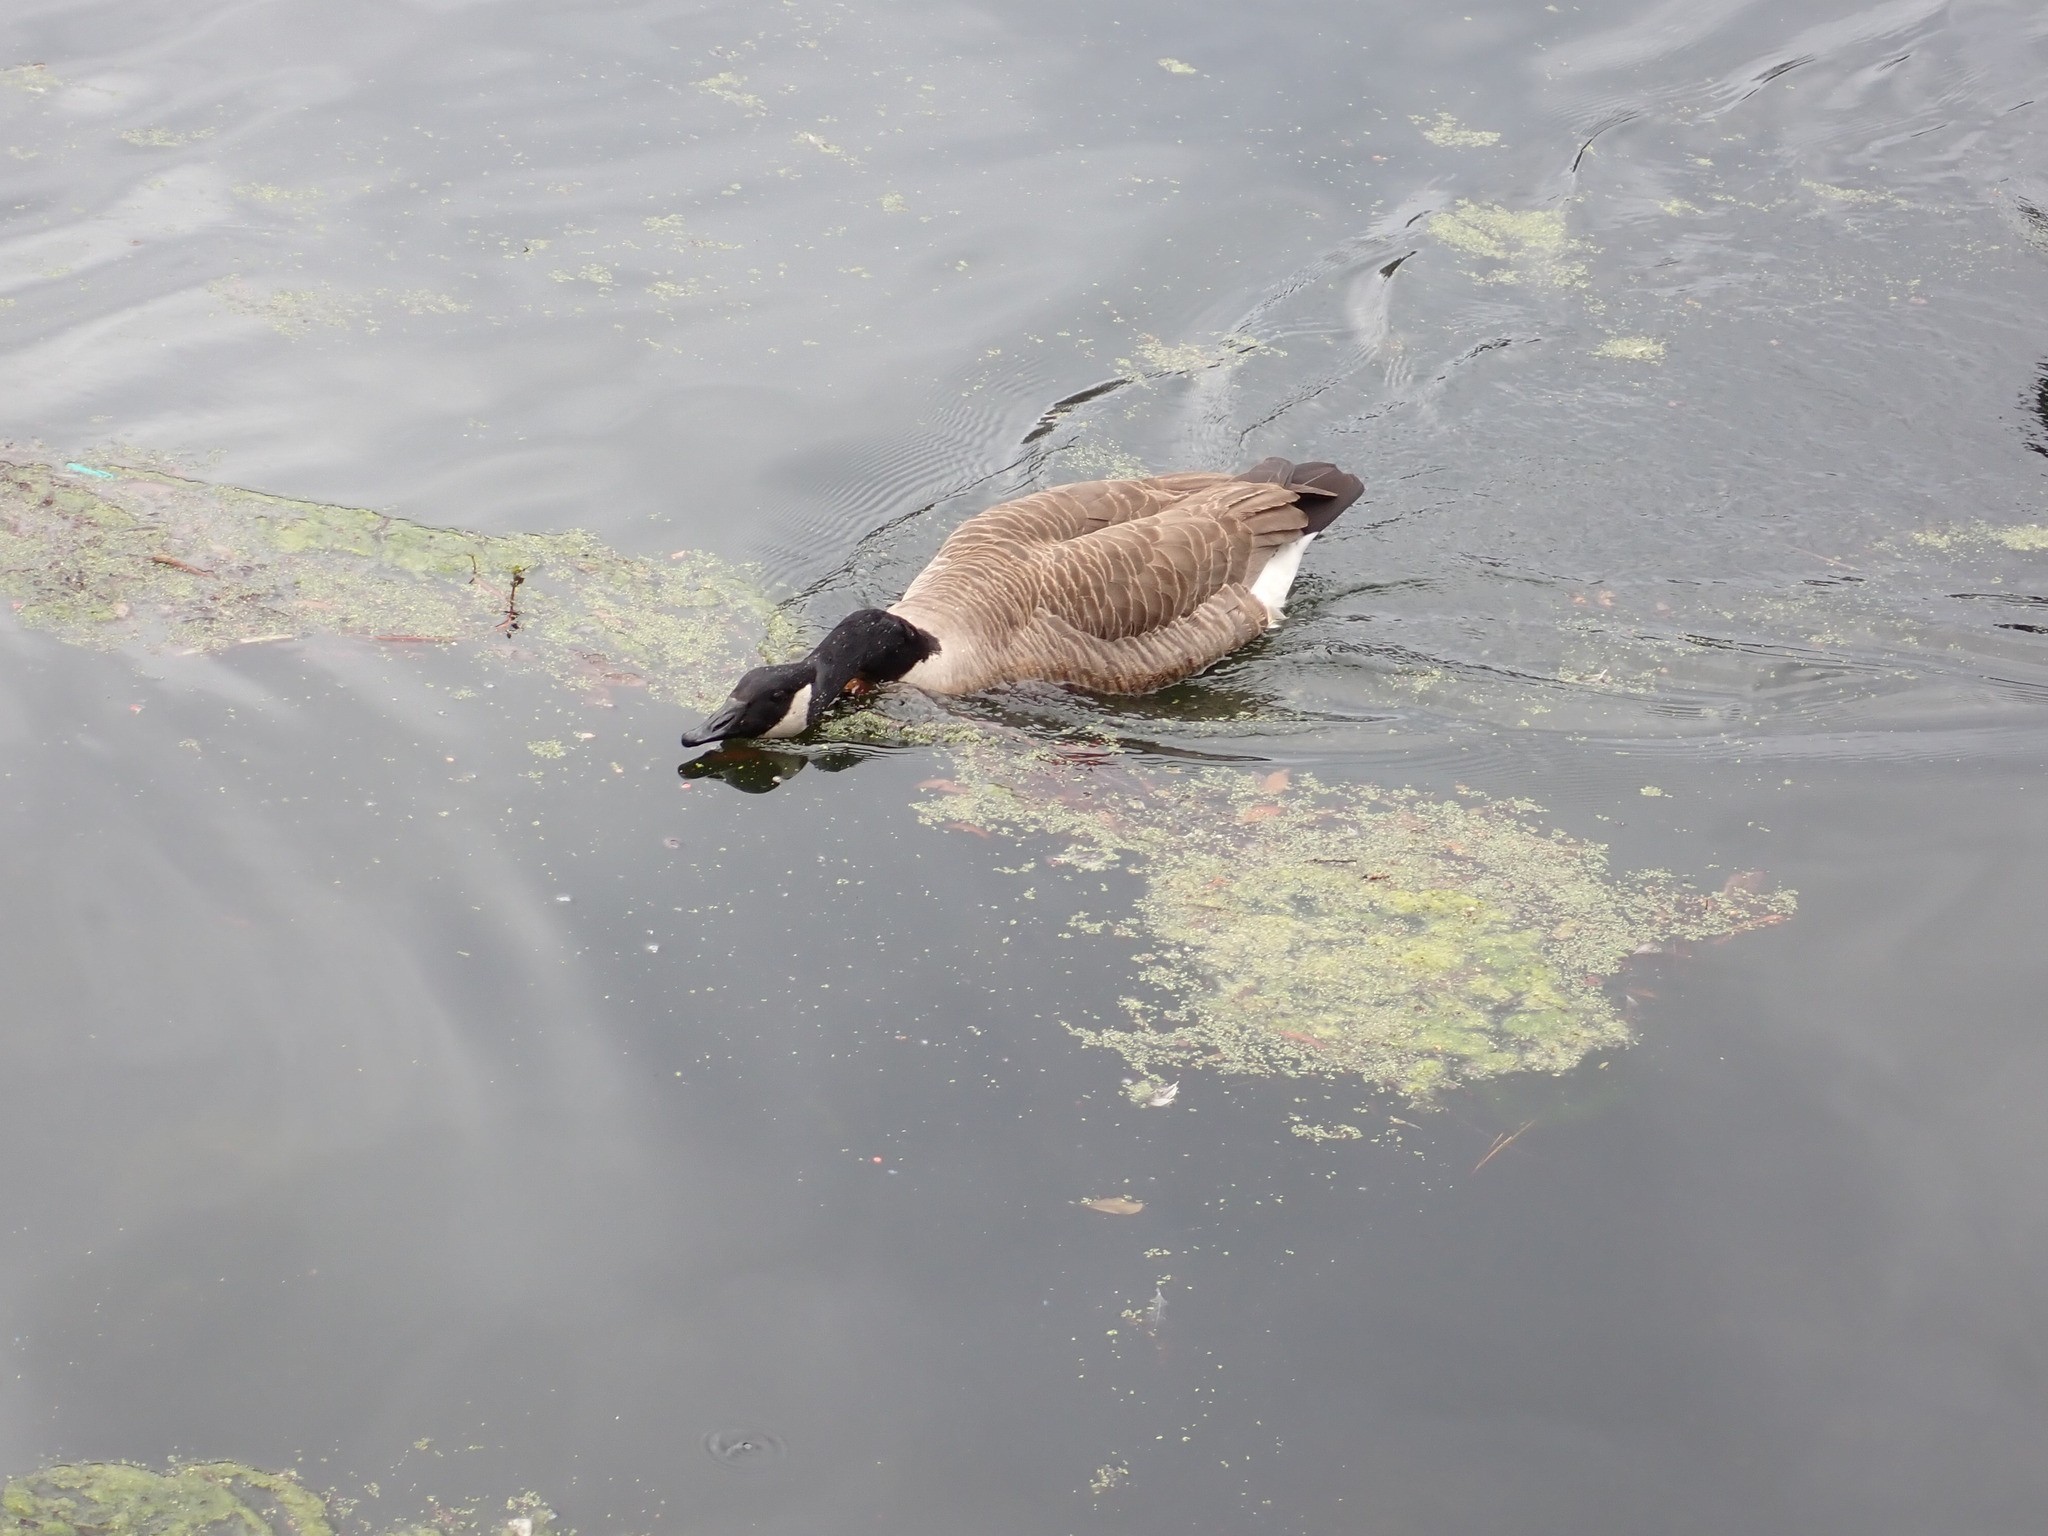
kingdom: Animalia
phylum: Chordata
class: Aves
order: Anseriformes
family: Anatidae
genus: Branta
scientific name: Branta canadensis
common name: Canada goose
